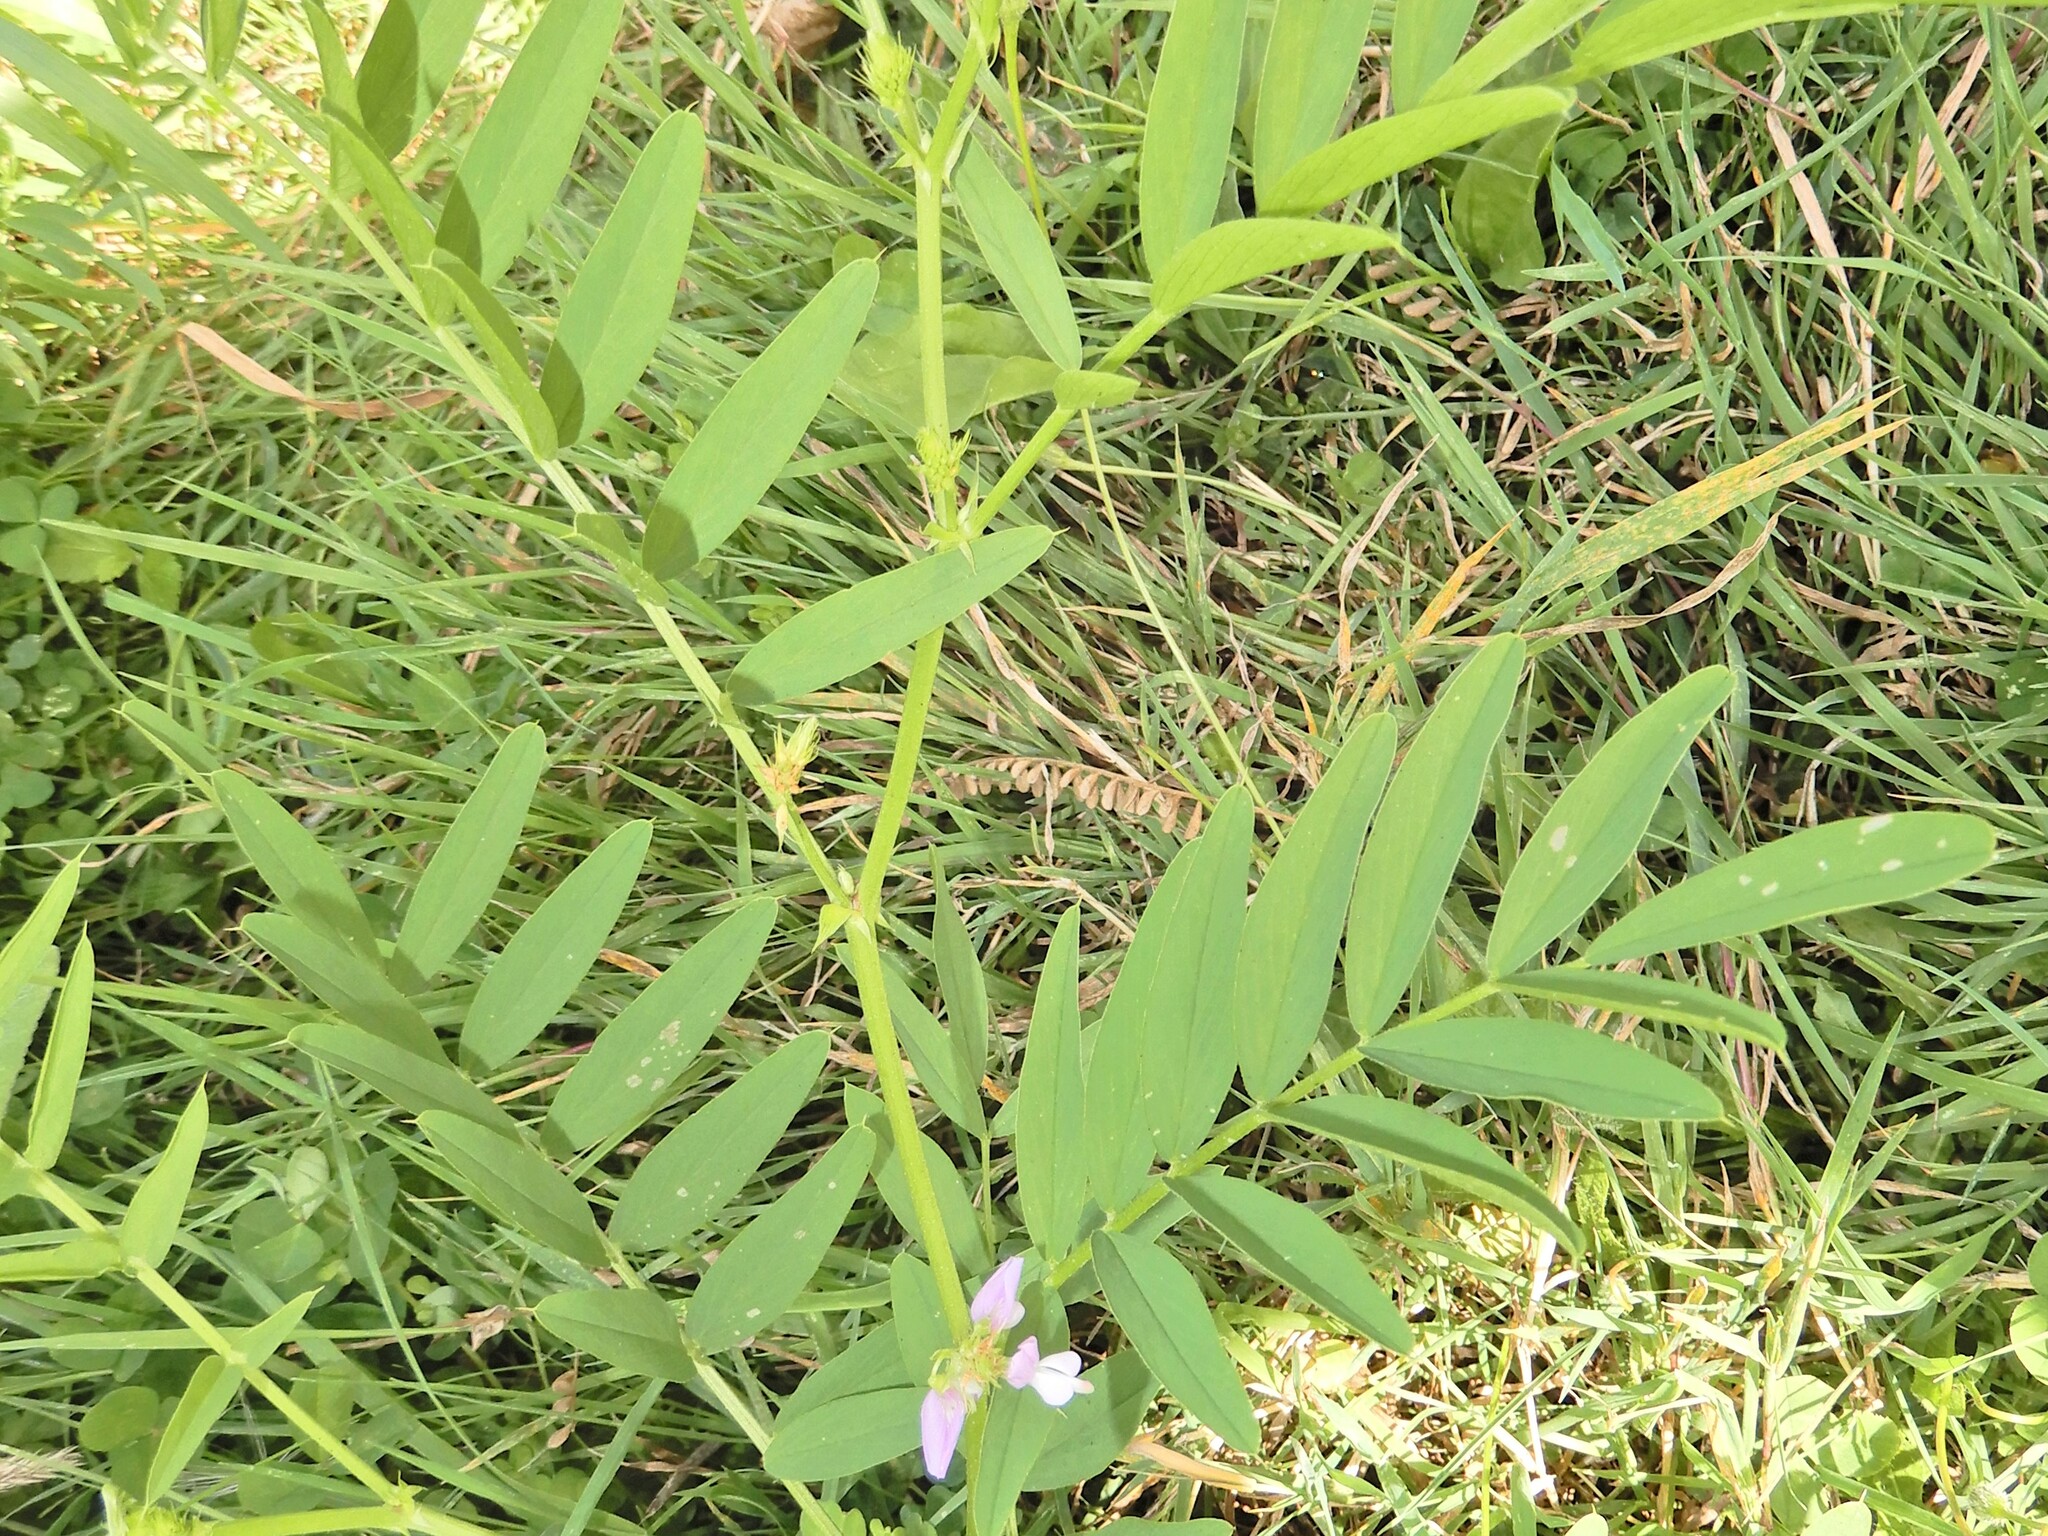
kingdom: Plantae
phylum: Tracheophyta
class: Magnoliopsida
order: Fabales
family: Fabaceae
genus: Galega
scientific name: Galega officinalis
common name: Goat's-rue
